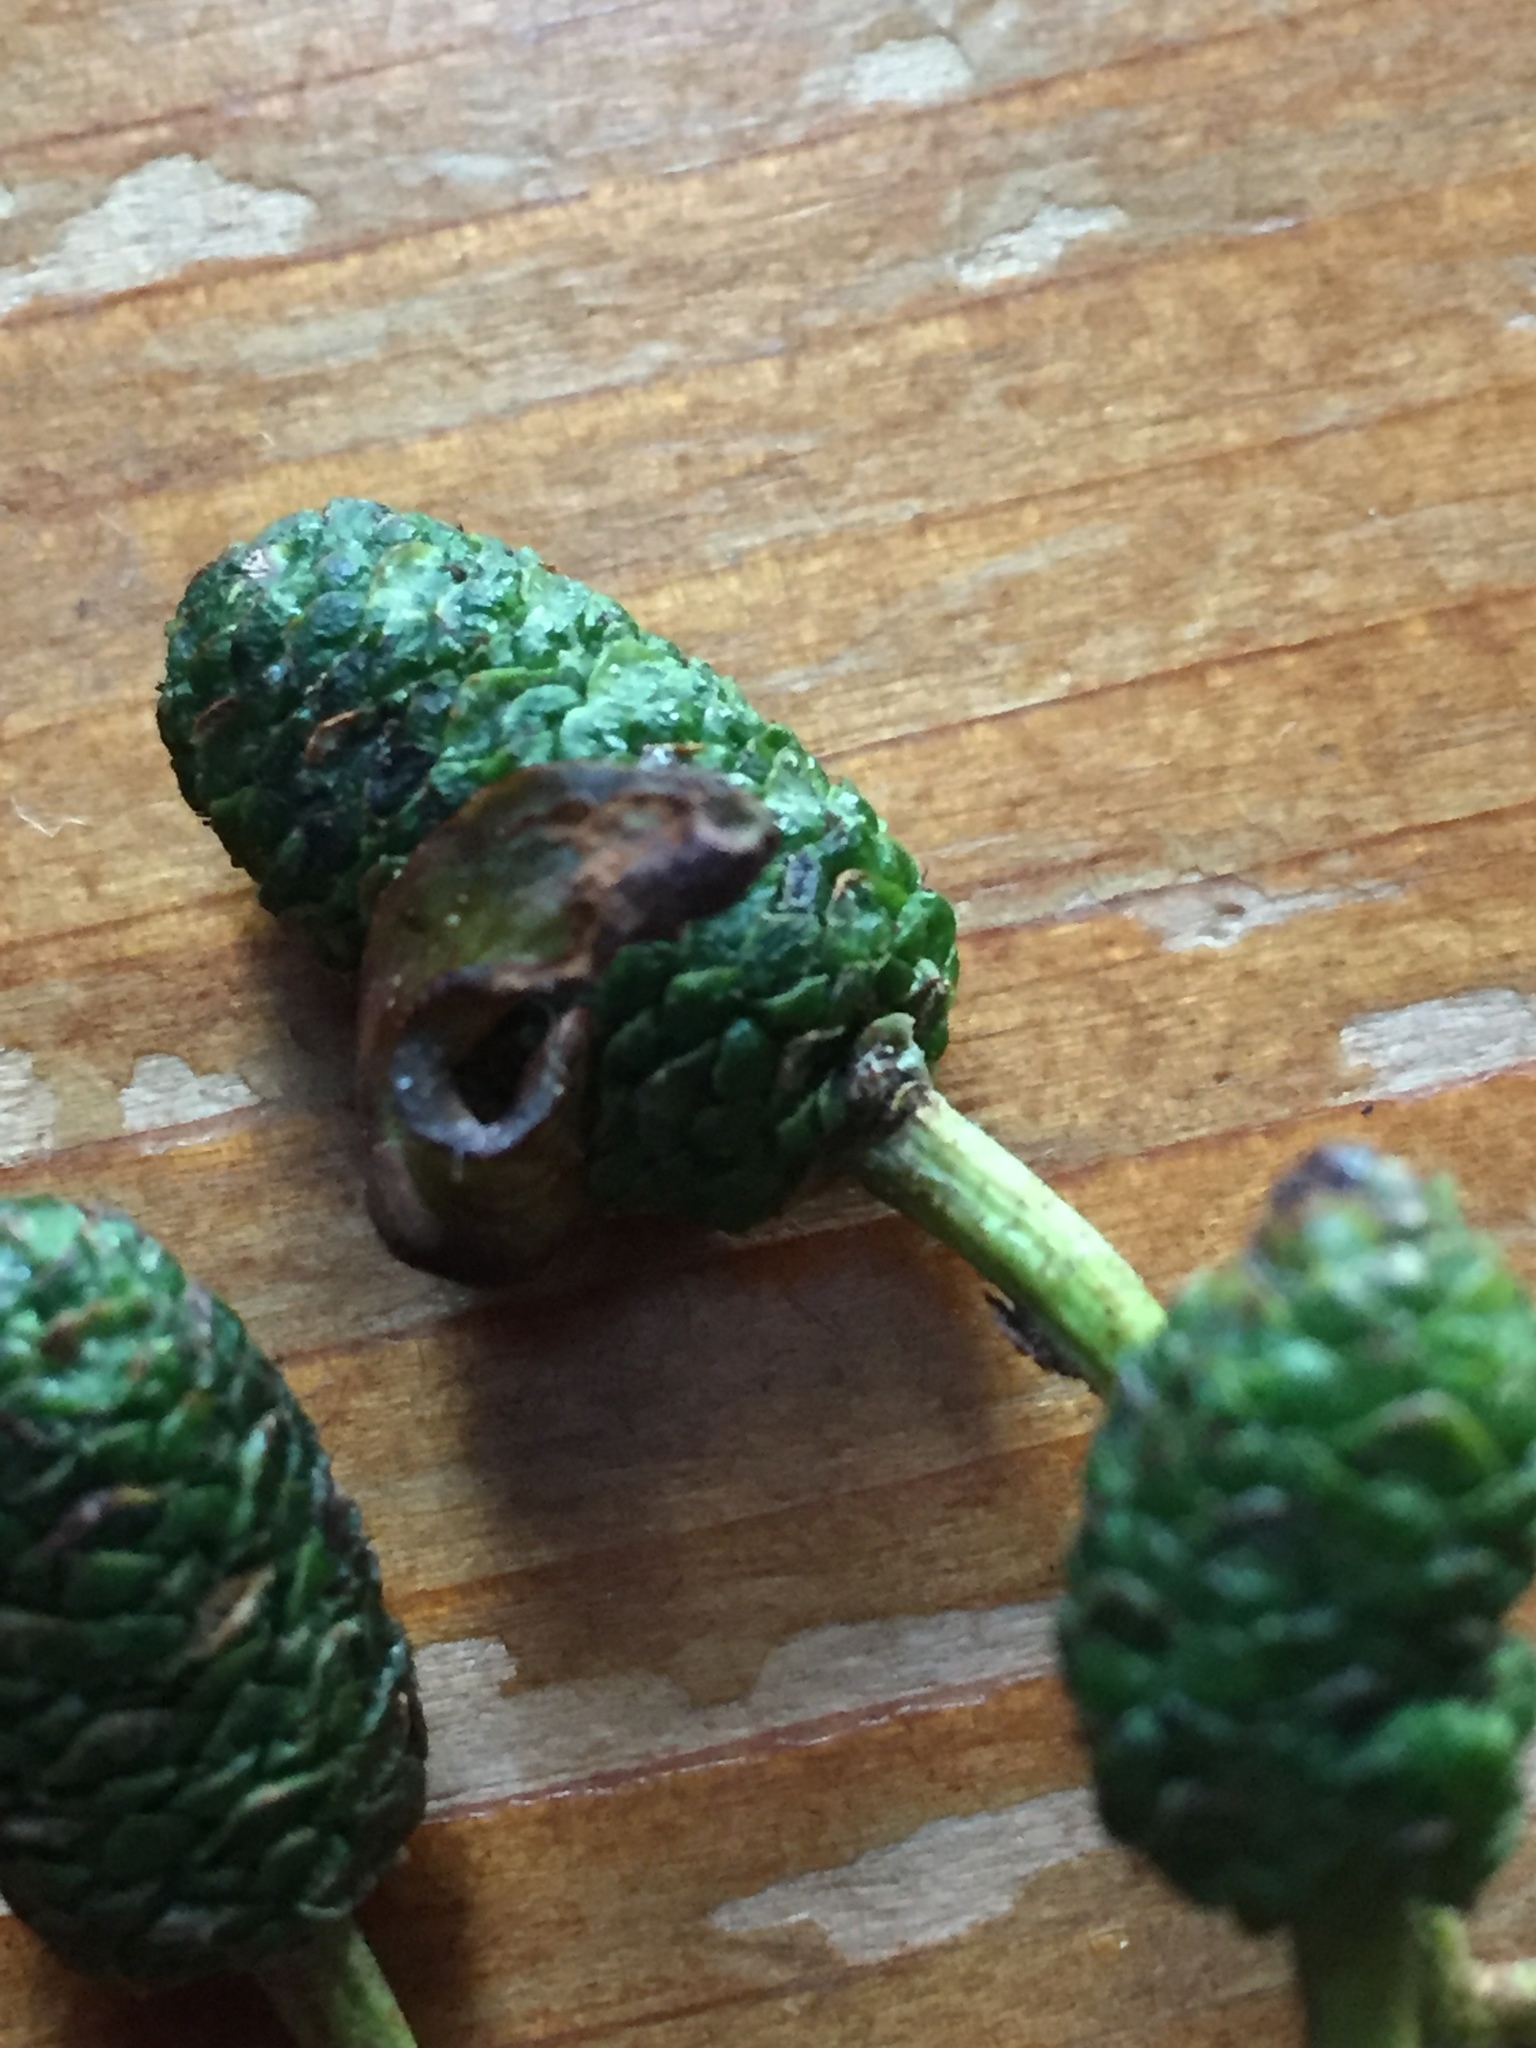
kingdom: Fungi
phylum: Ascomycota
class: Taphrinomycetes
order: Taphrinales
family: Taphrinaceae
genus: Taphrina
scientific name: Taphrina alni
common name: Alder tongue
